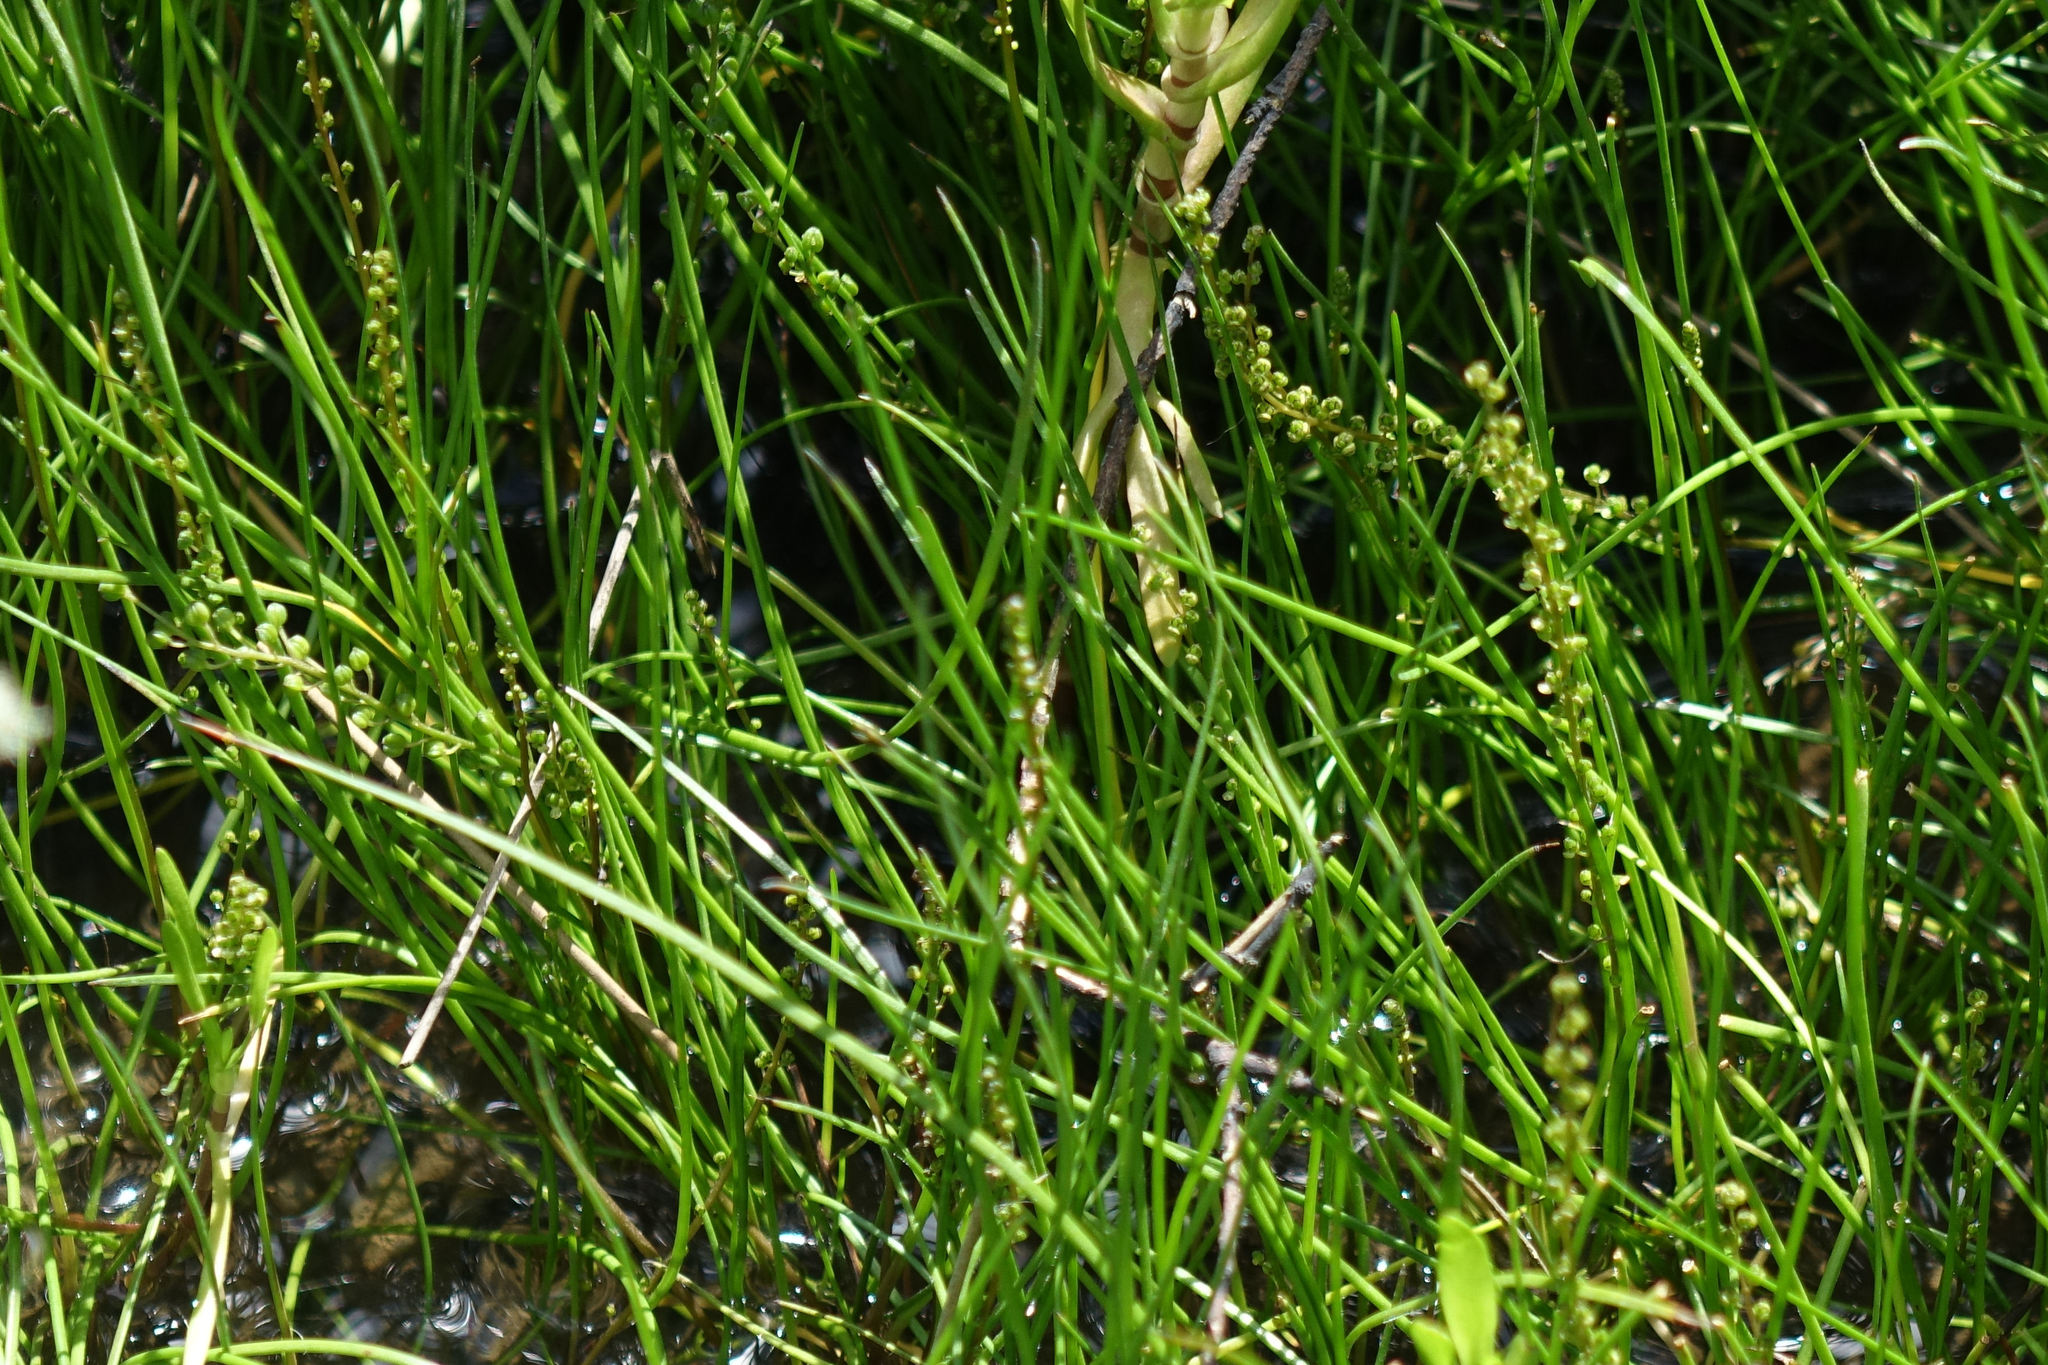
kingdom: Plantae
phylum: Tracheophyta
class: Liliopsida
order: Alismatales
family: Juncaginaceae
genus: Triglochin
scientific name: Triglochin striata
